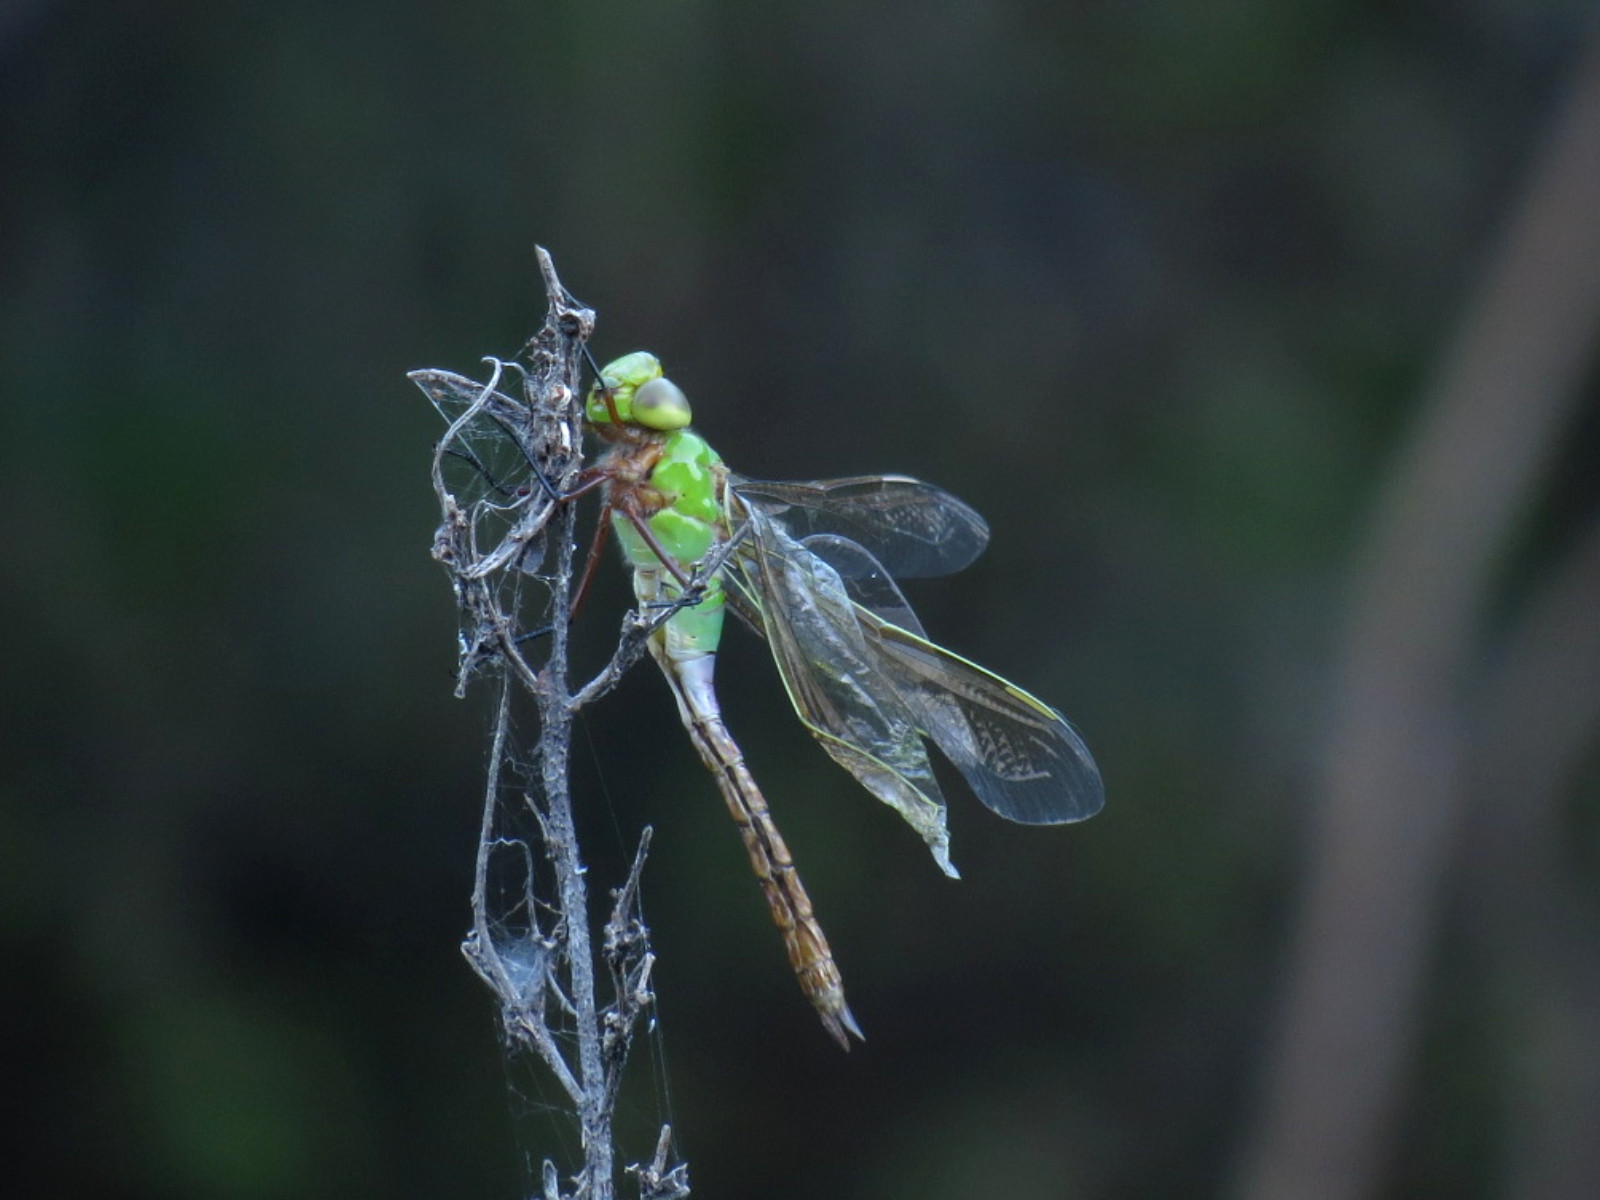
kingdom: Animalia
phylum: Arthropoda
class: Insecta
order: Odonata
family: Aeshnidae
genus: Anax
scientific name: Anax junius
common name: Common green darner
